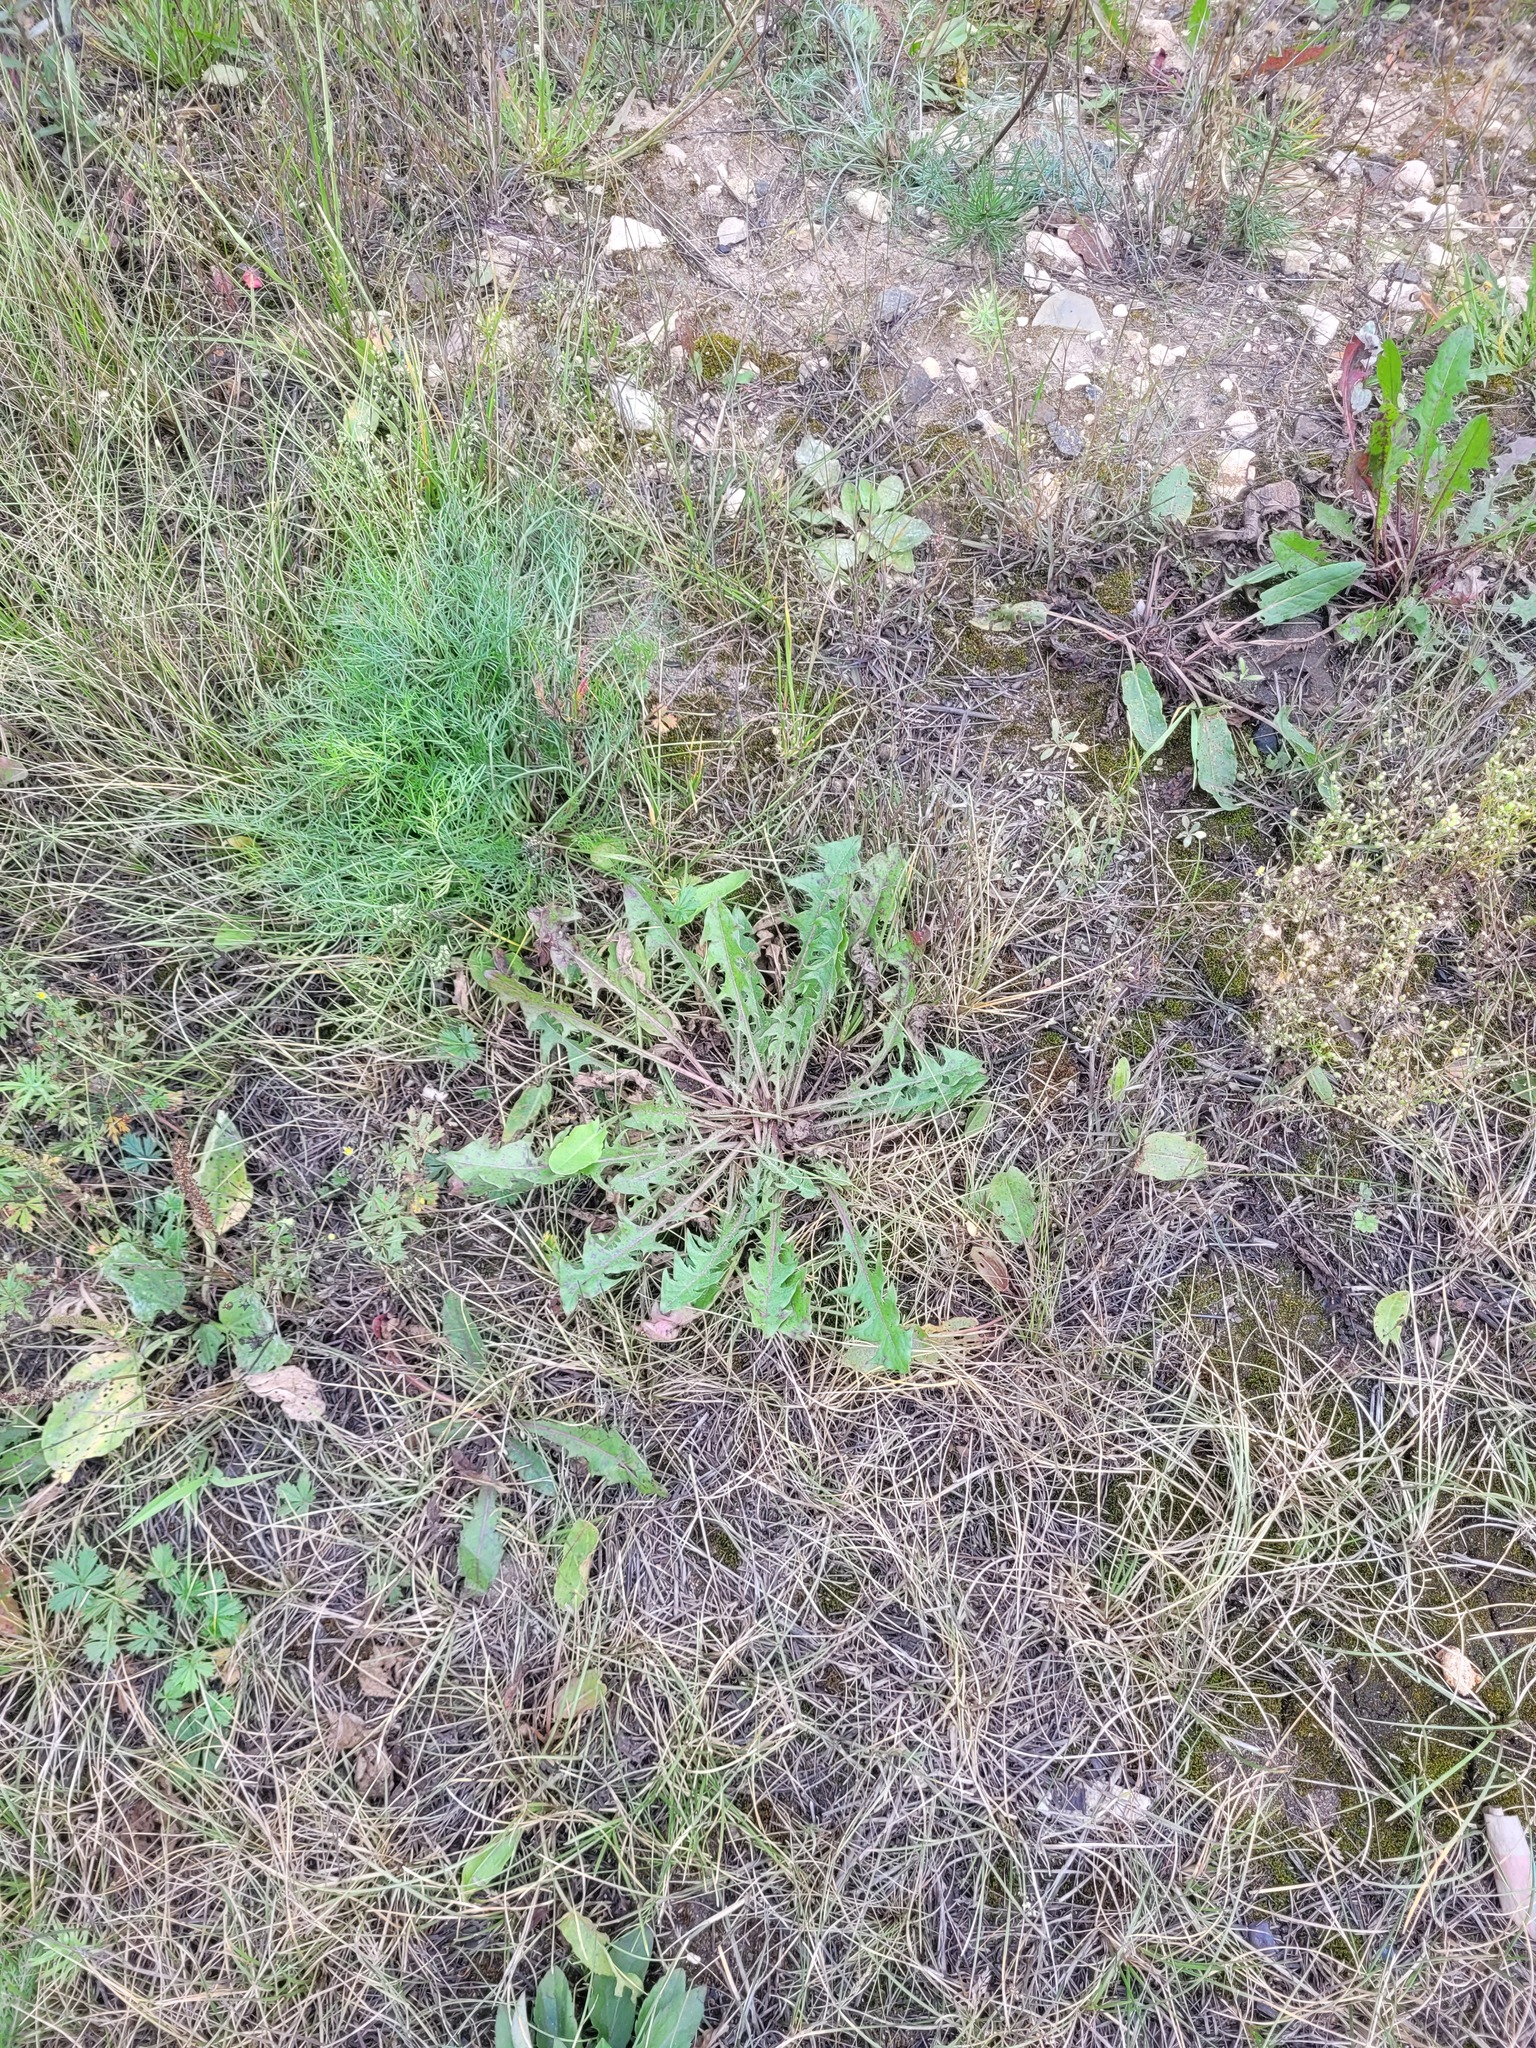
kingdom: Plantae
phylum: Tracheophyta
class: Magnoliopsida
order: Asterales
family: Asteraceae
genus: Taraxacum
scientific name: Taraxacum officinale
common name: Common dandelion
